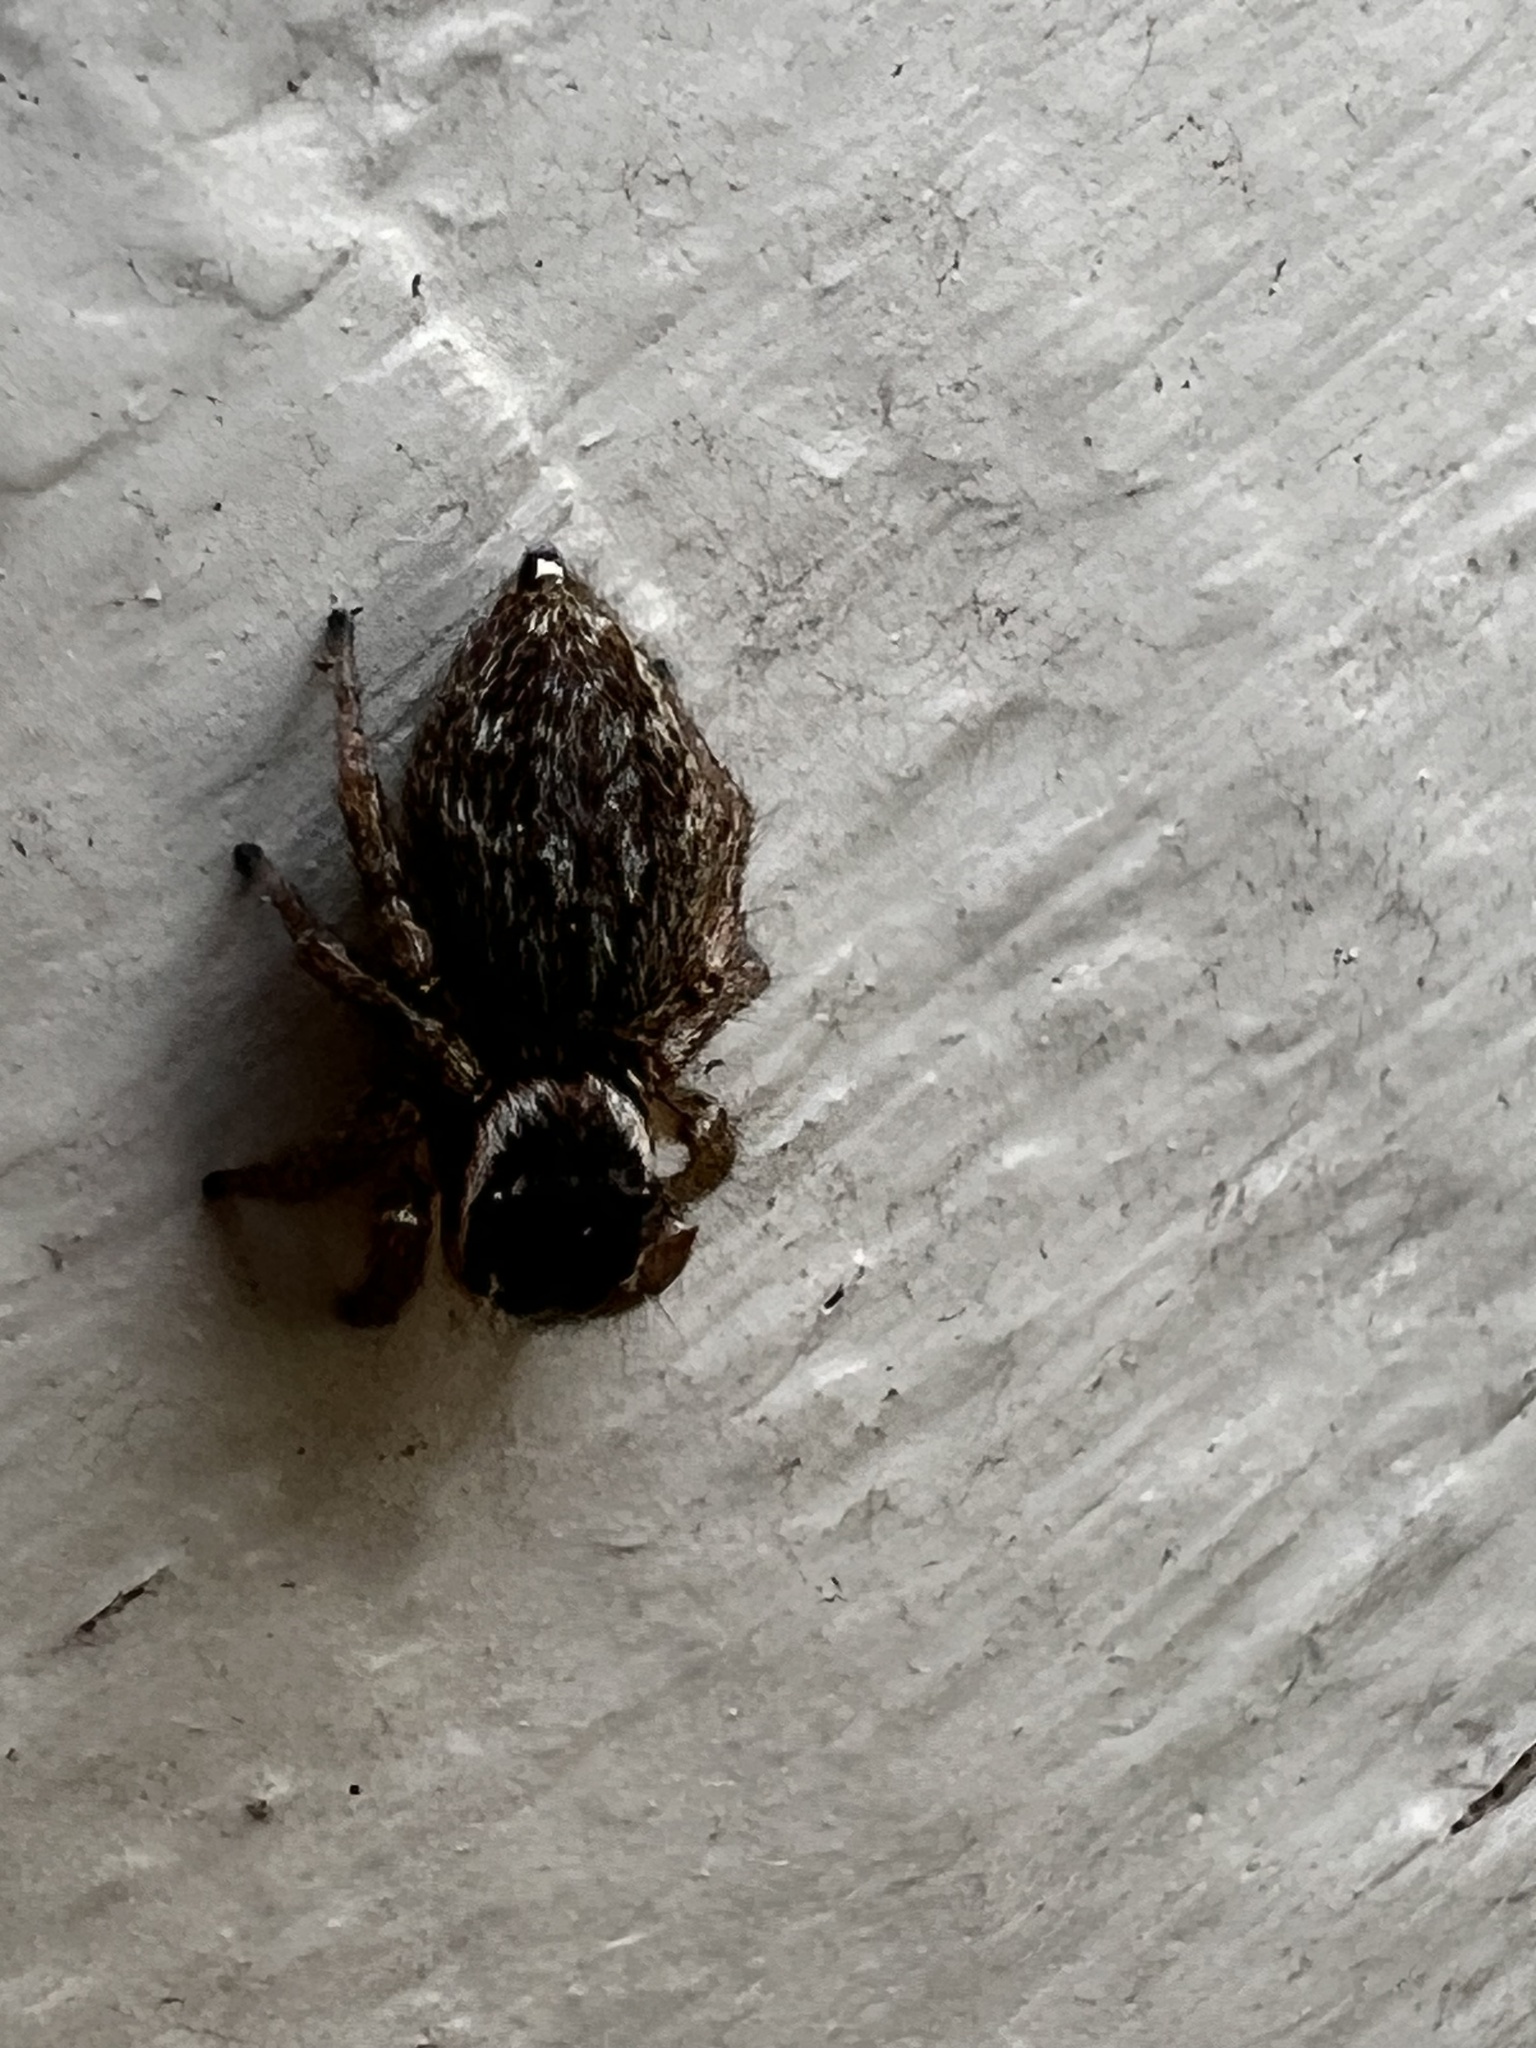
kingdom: Animalia
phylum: Arthropoda
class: Arachnida
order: Araneae
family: Salticidae
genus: Maratus
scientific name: Maratus griseus
